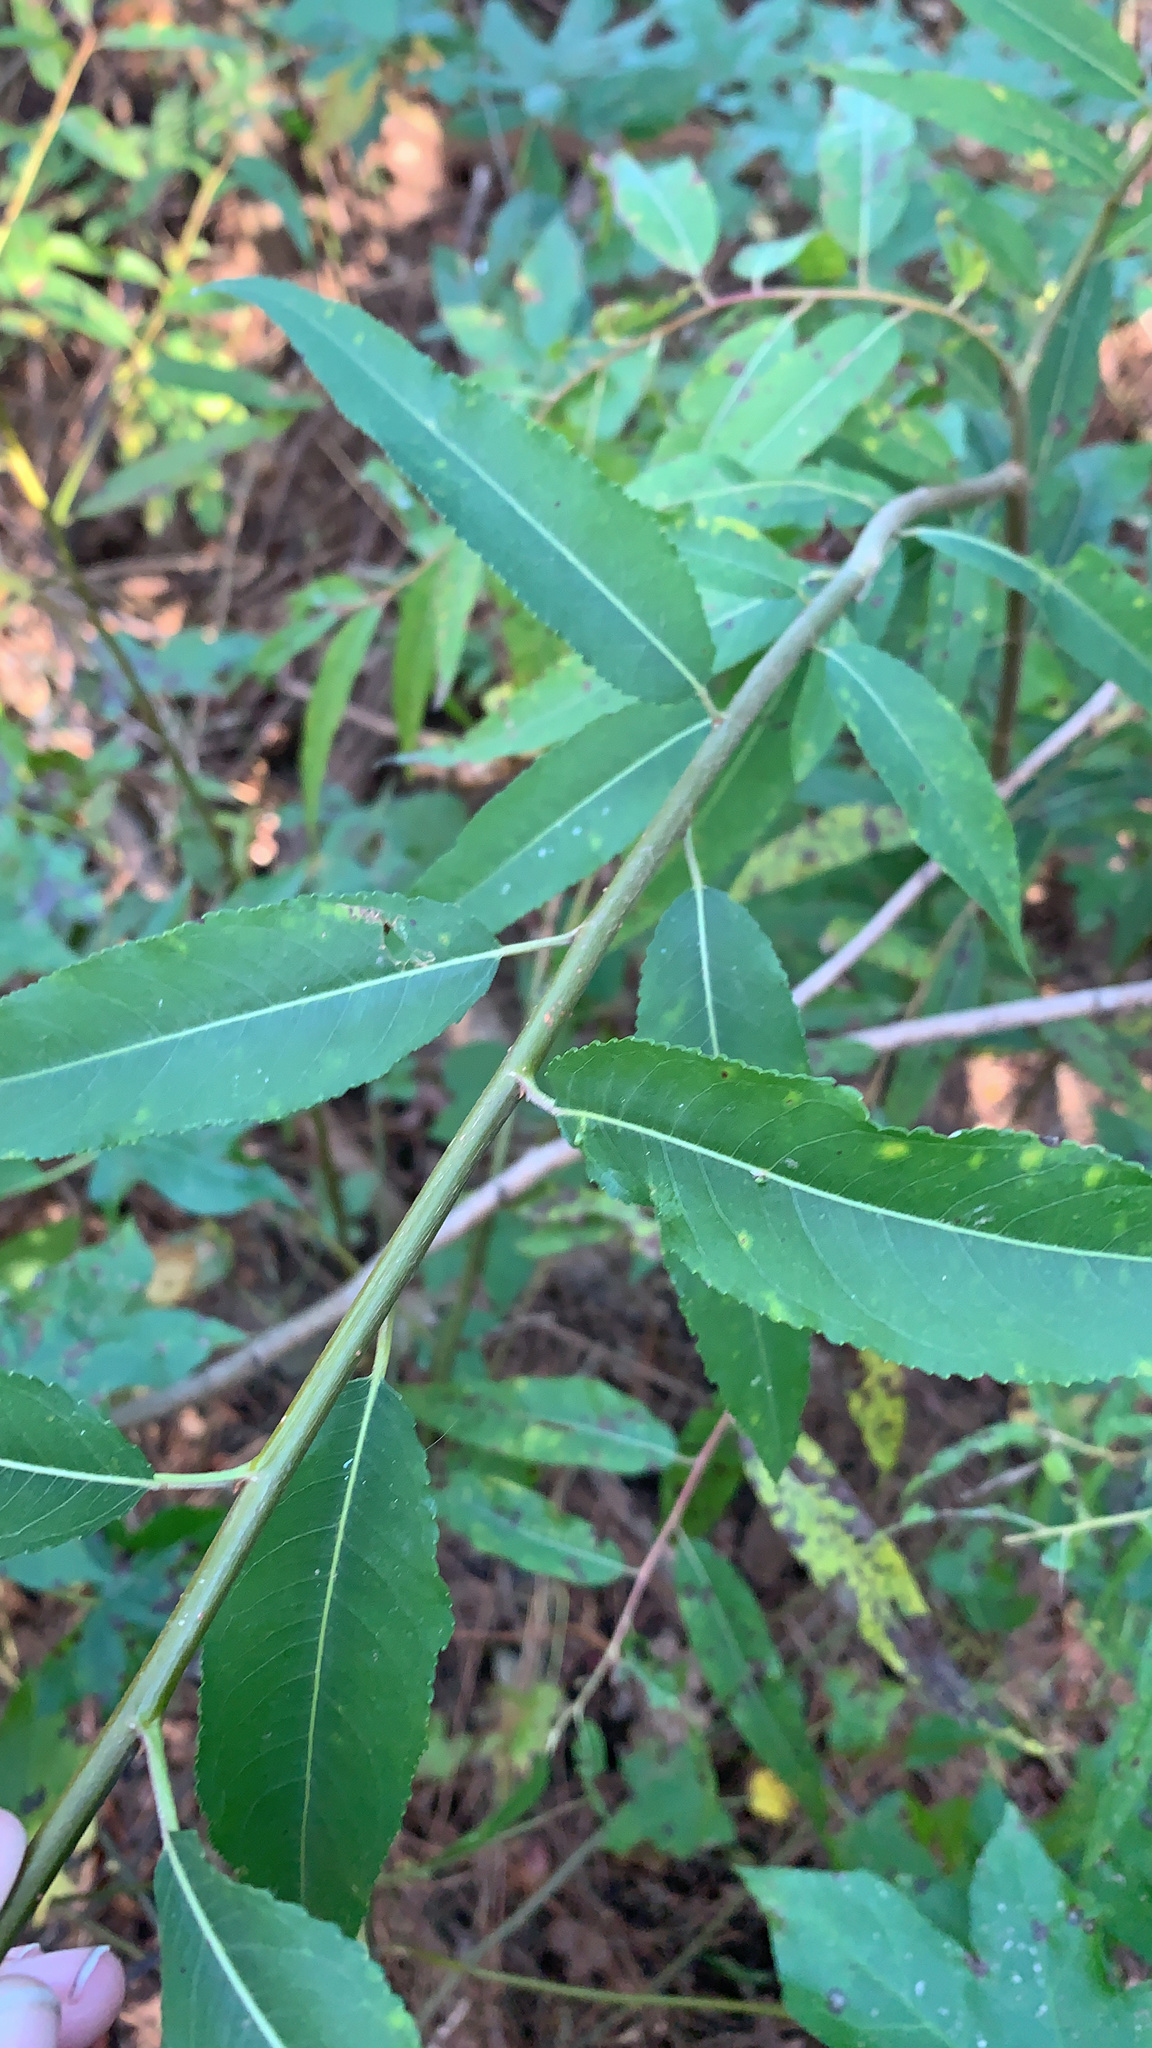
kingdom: Plantae
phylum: Tracheophyta
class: Magnoliopsida
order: Malpighiales
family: Salicaceae
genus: Salix
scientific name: Salix nigra
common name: Black willow
